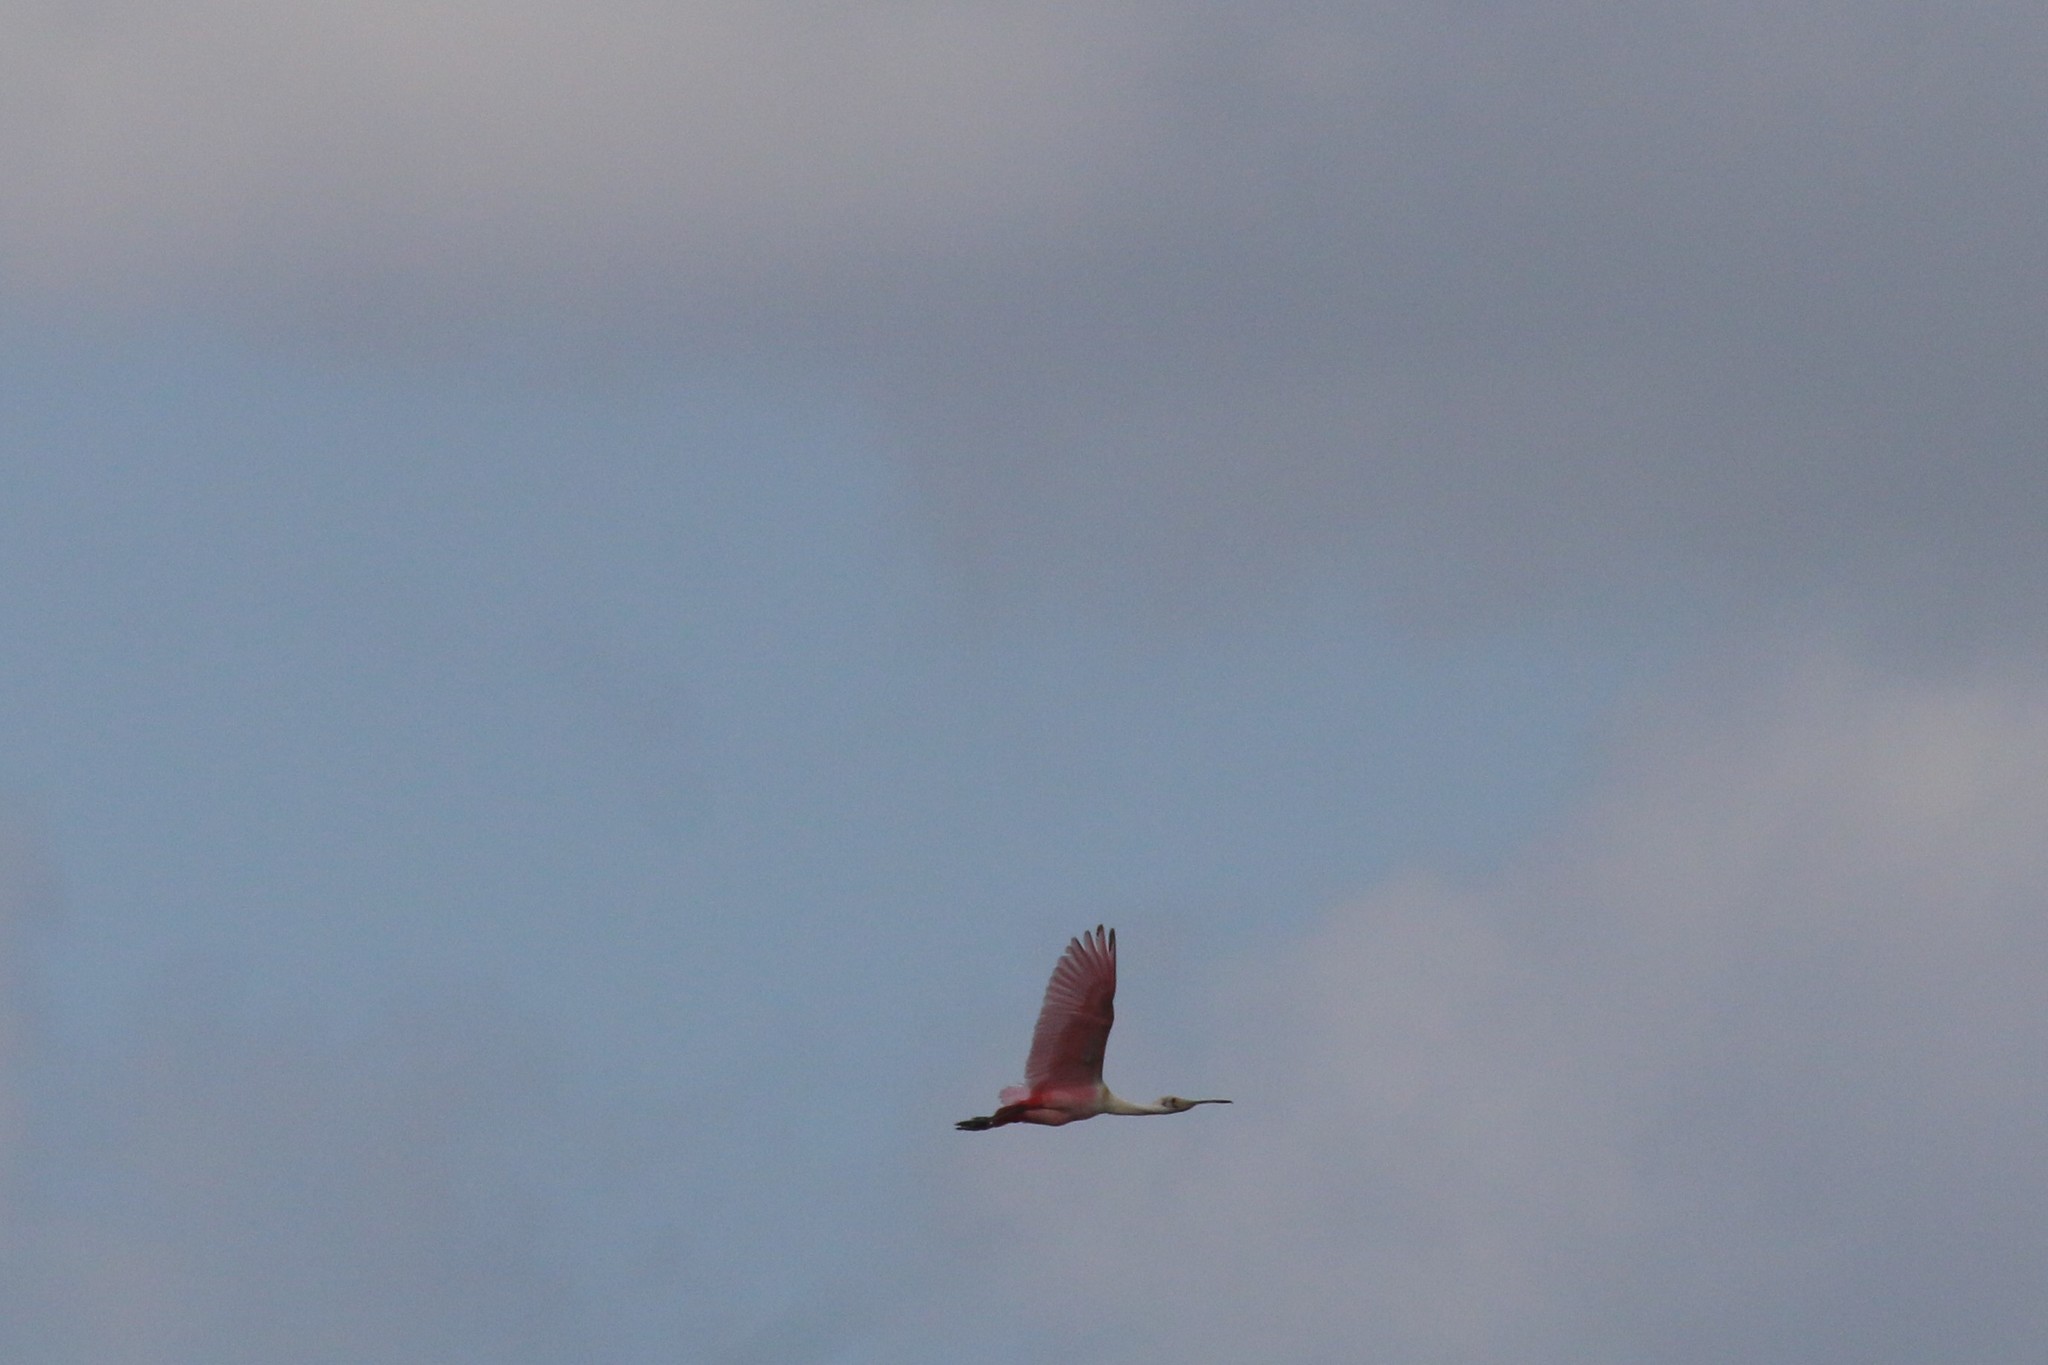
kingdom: Animalia
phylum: Chordata
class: Aves
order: Pelecaniformes
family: Threskiornithidae
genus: Platalea
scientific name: Platalea ajaja
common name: Roseate spoonbill
